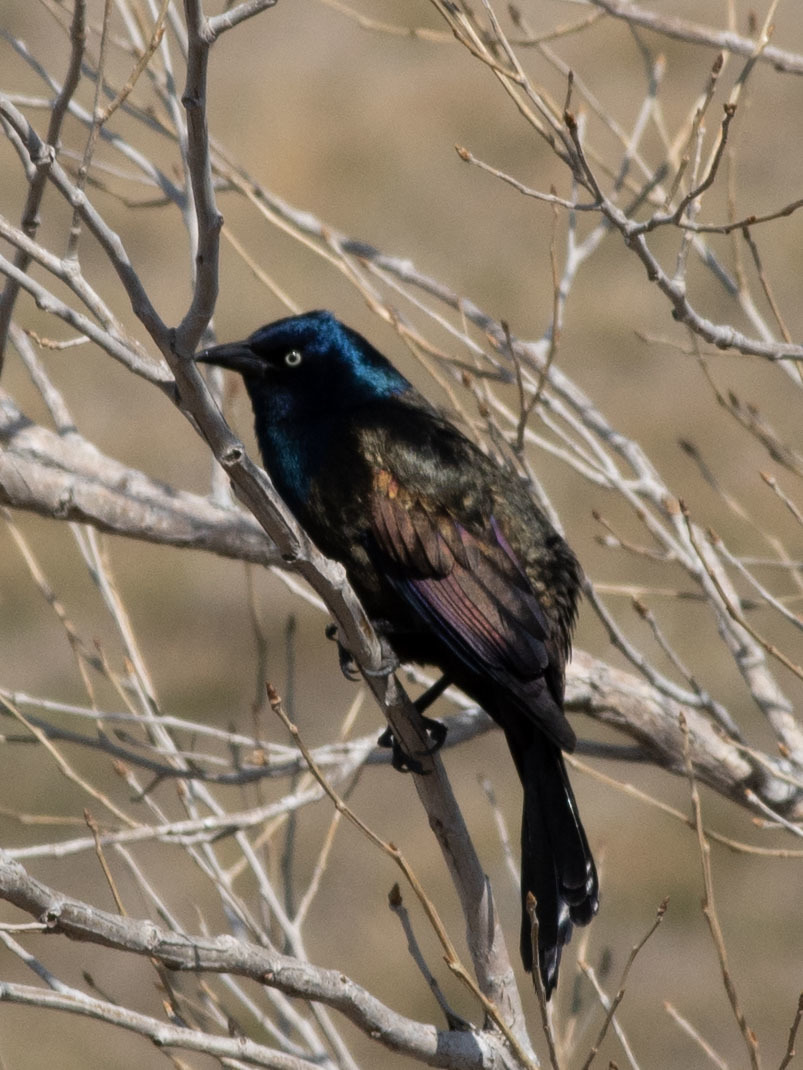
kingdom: Animalia
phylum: Chordata
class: Aves
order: Passeriformes
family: Icteridae
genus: Quiscalus
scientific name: Quiscalus quiscula
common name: Common grackle
